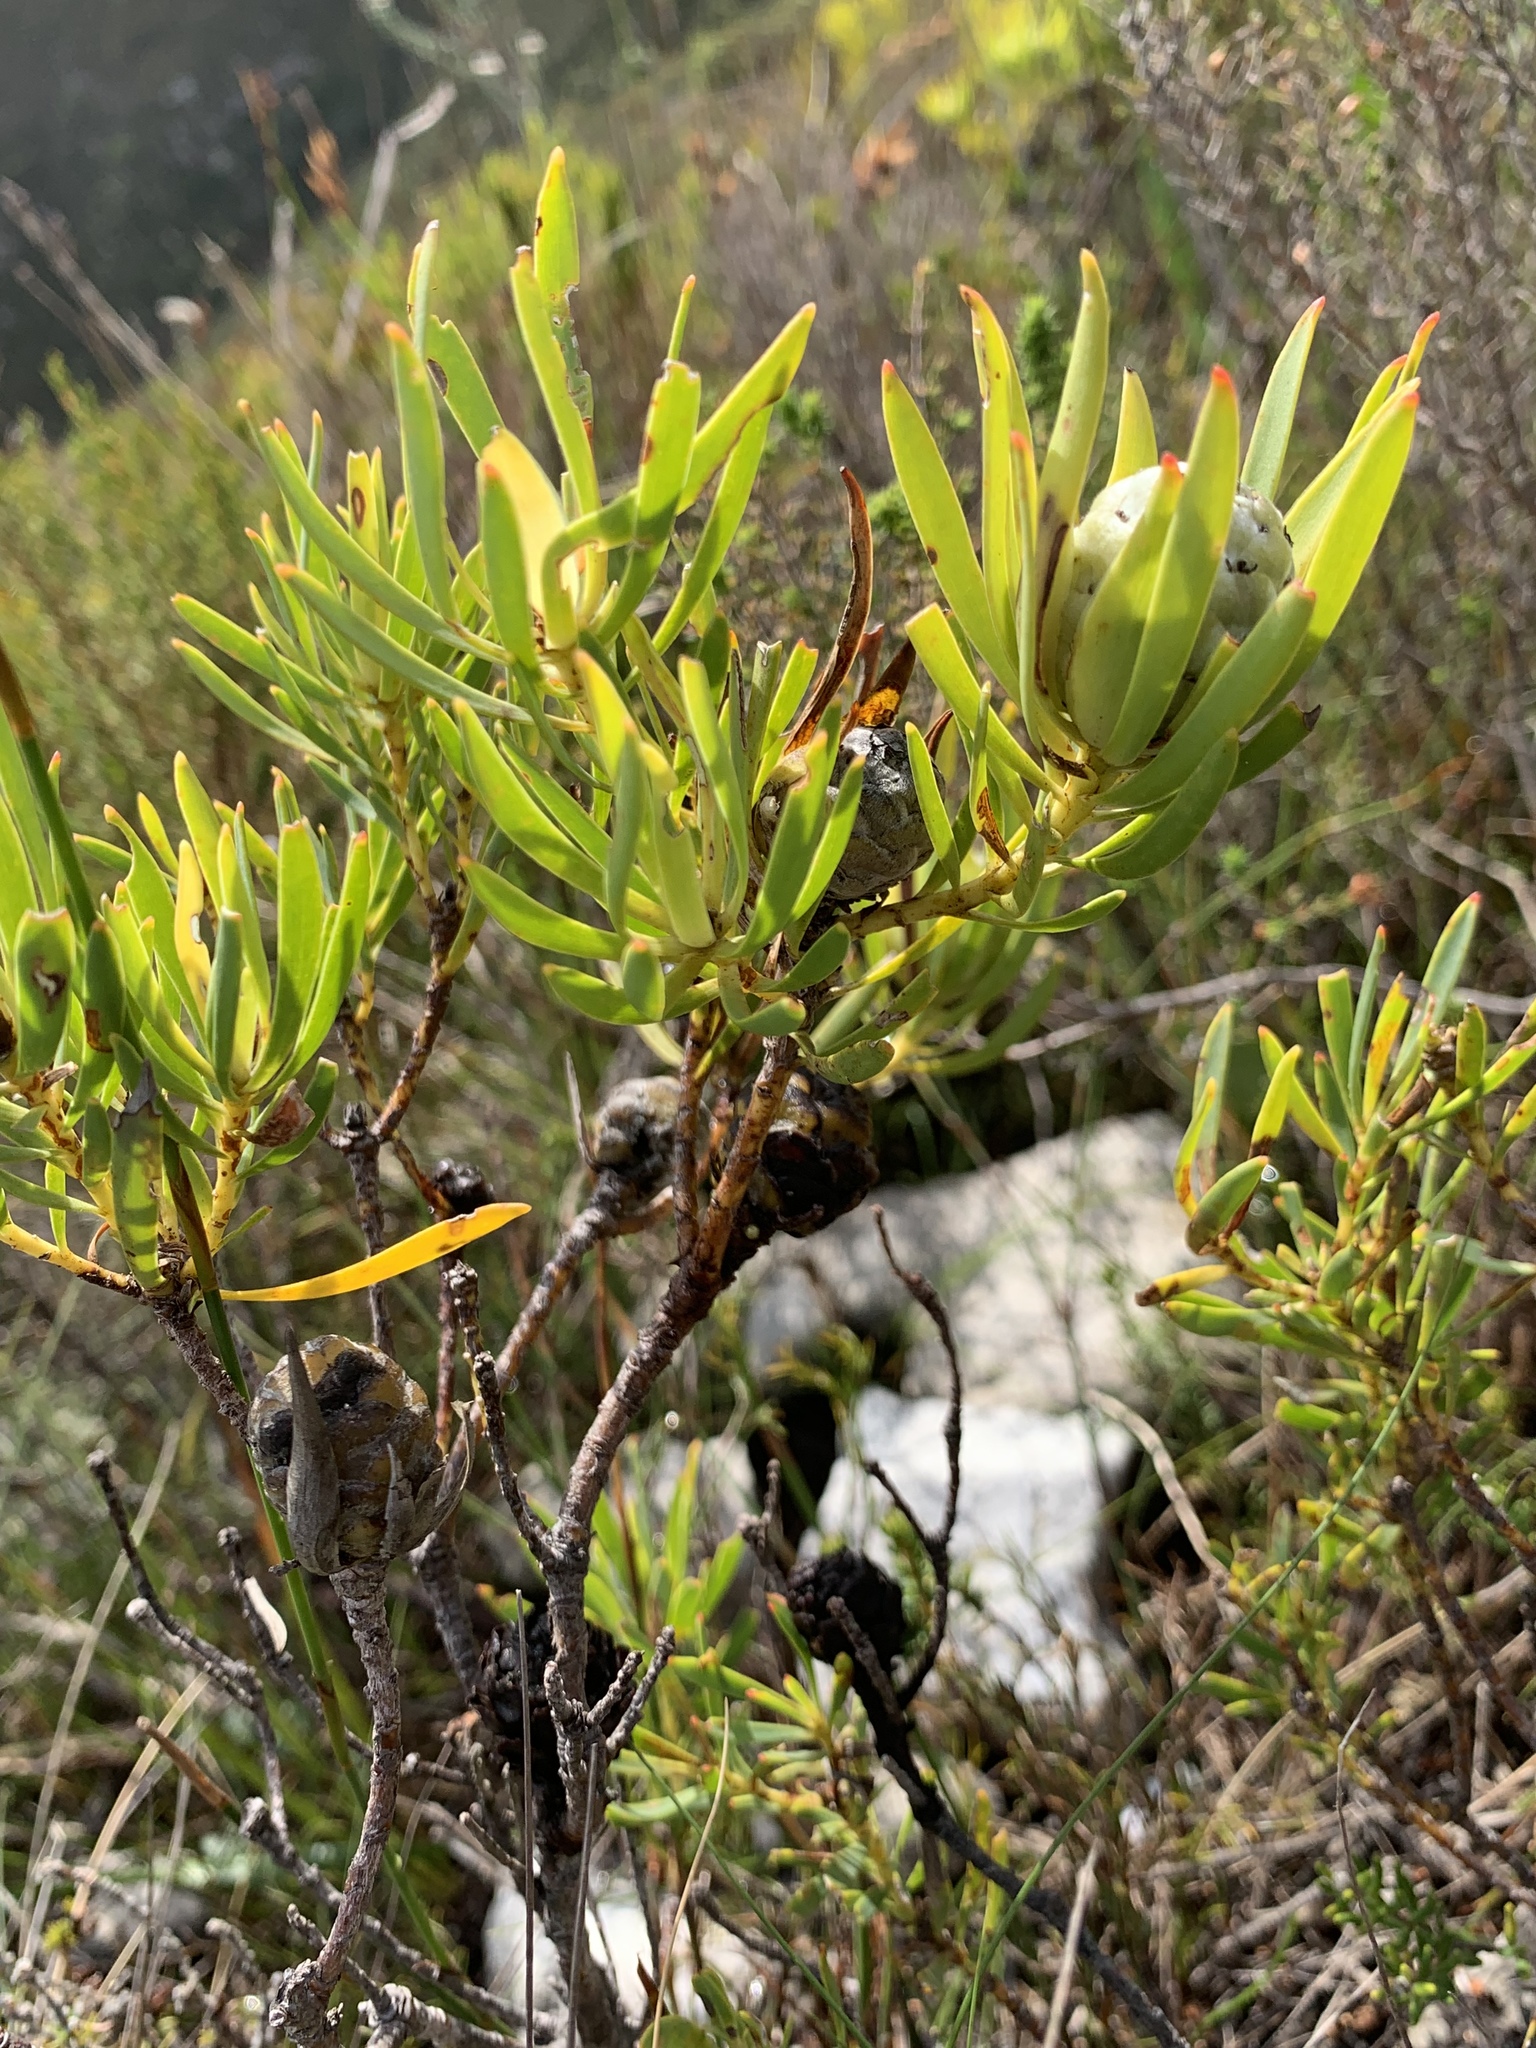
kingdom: Plantae
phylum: Tracheophyta
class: Magnoliopsida
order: Proteales
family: Proteaceae
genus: Leucadendron
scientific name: Leucadendron salignum
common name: Common sunshine conebush
